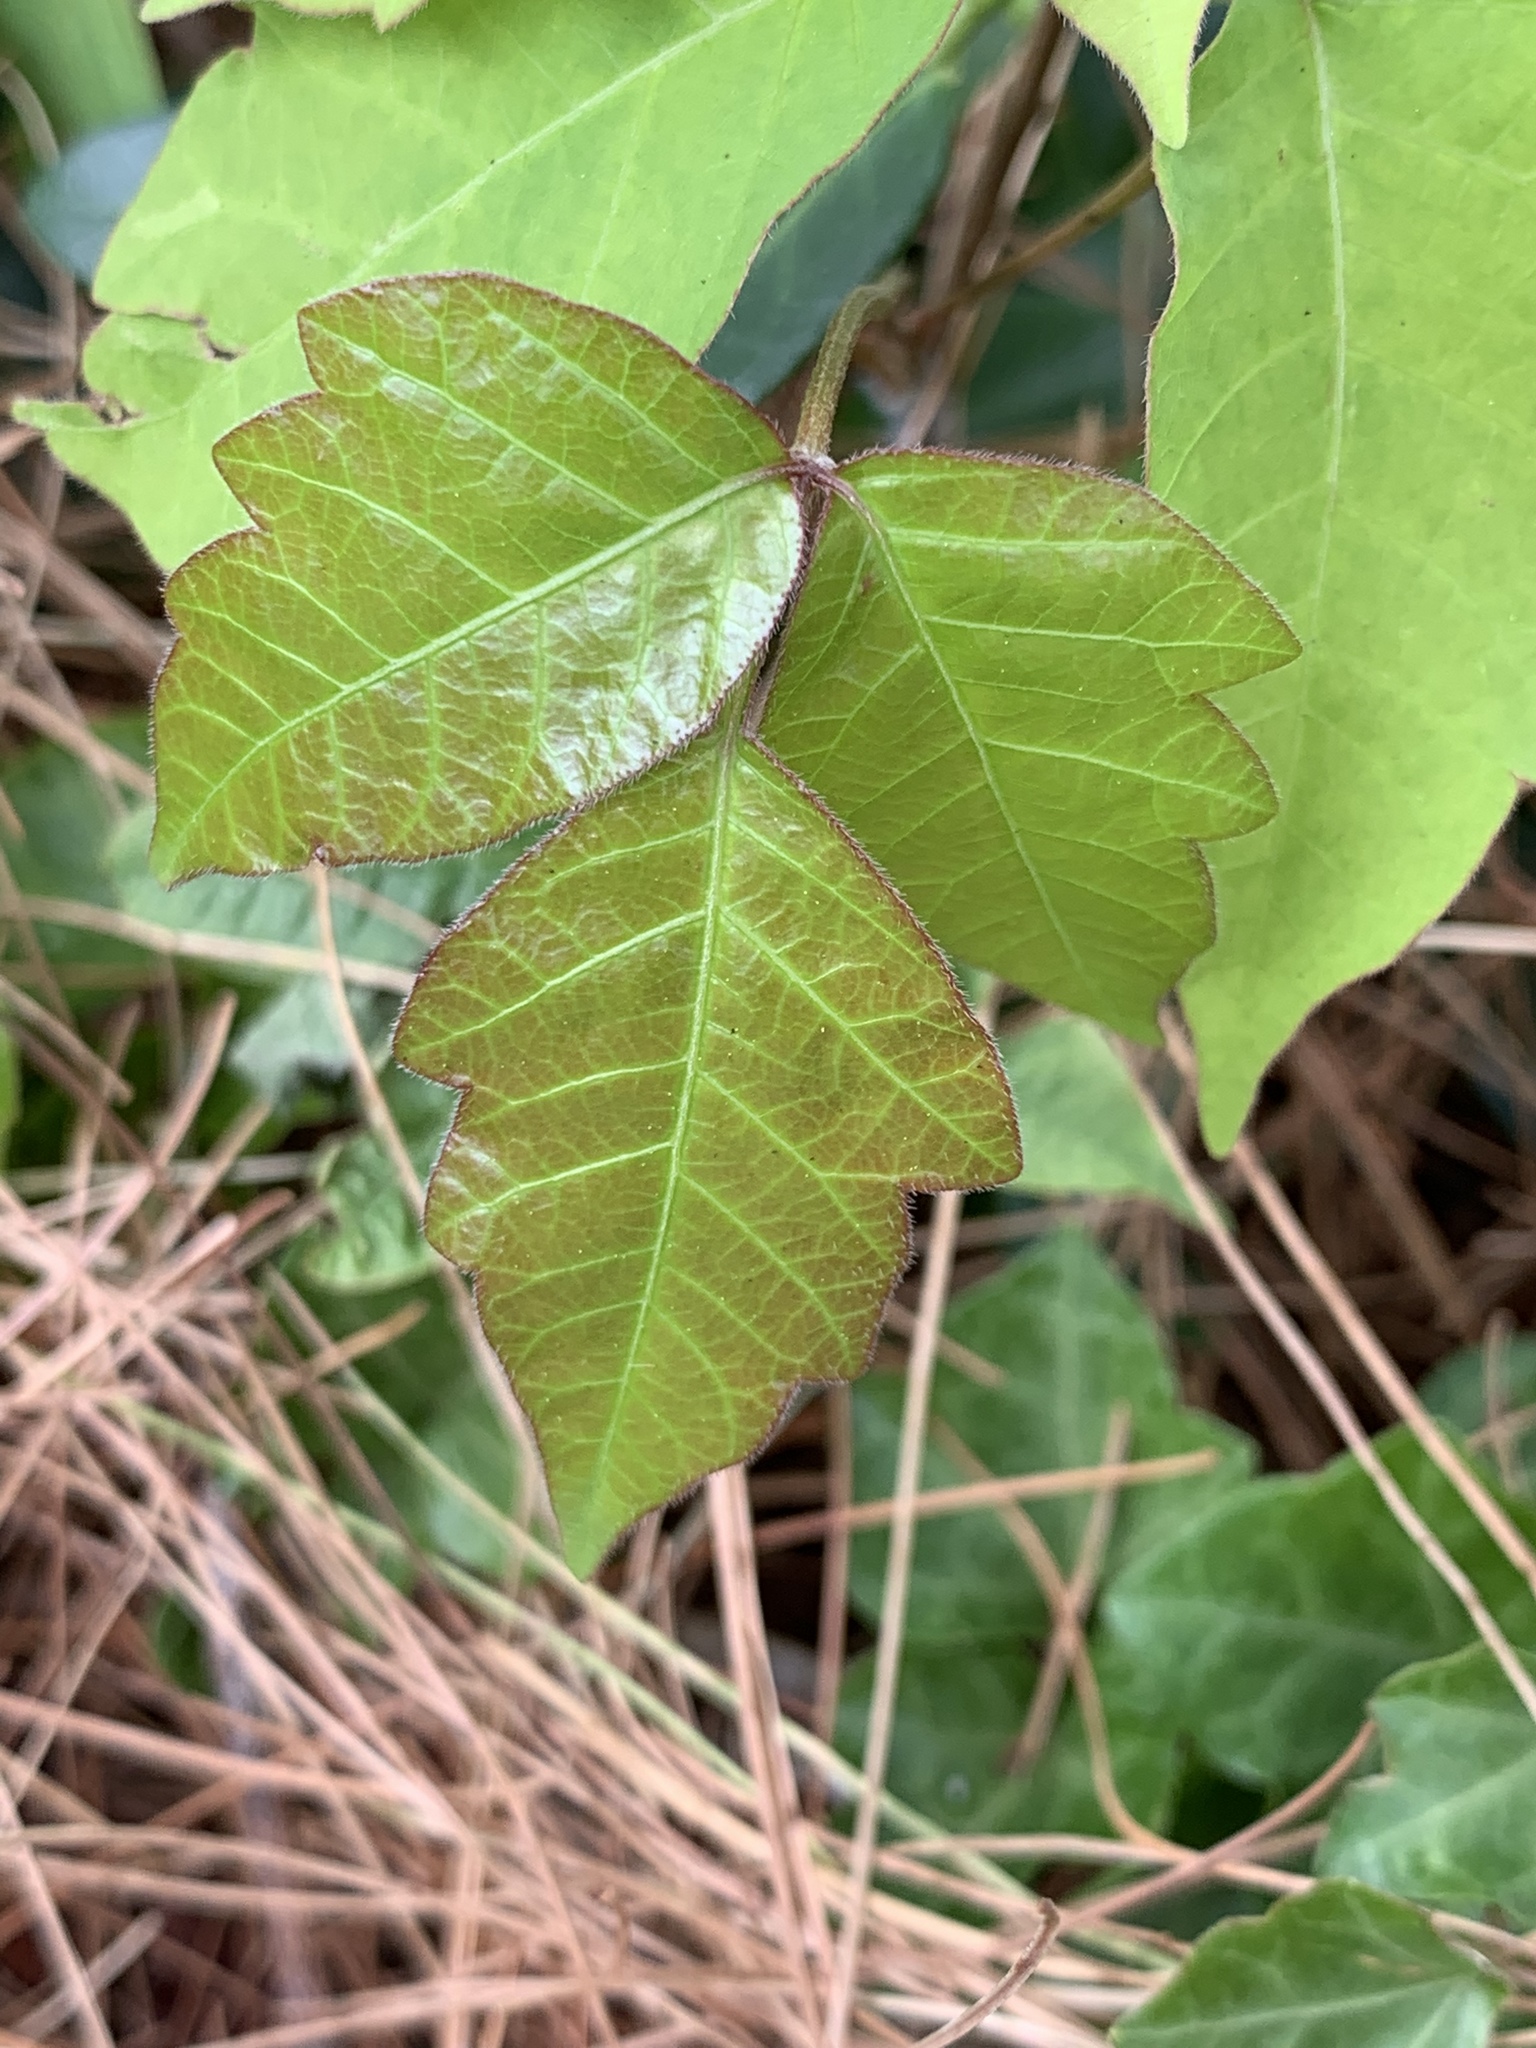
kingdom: Plantae
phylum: Tracheophyta
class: Magnoliopsida
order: Sapindales
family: Anacardiaceae
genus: Toxicodendron
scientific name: Toxicodendron radicans
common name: Poison ivy
